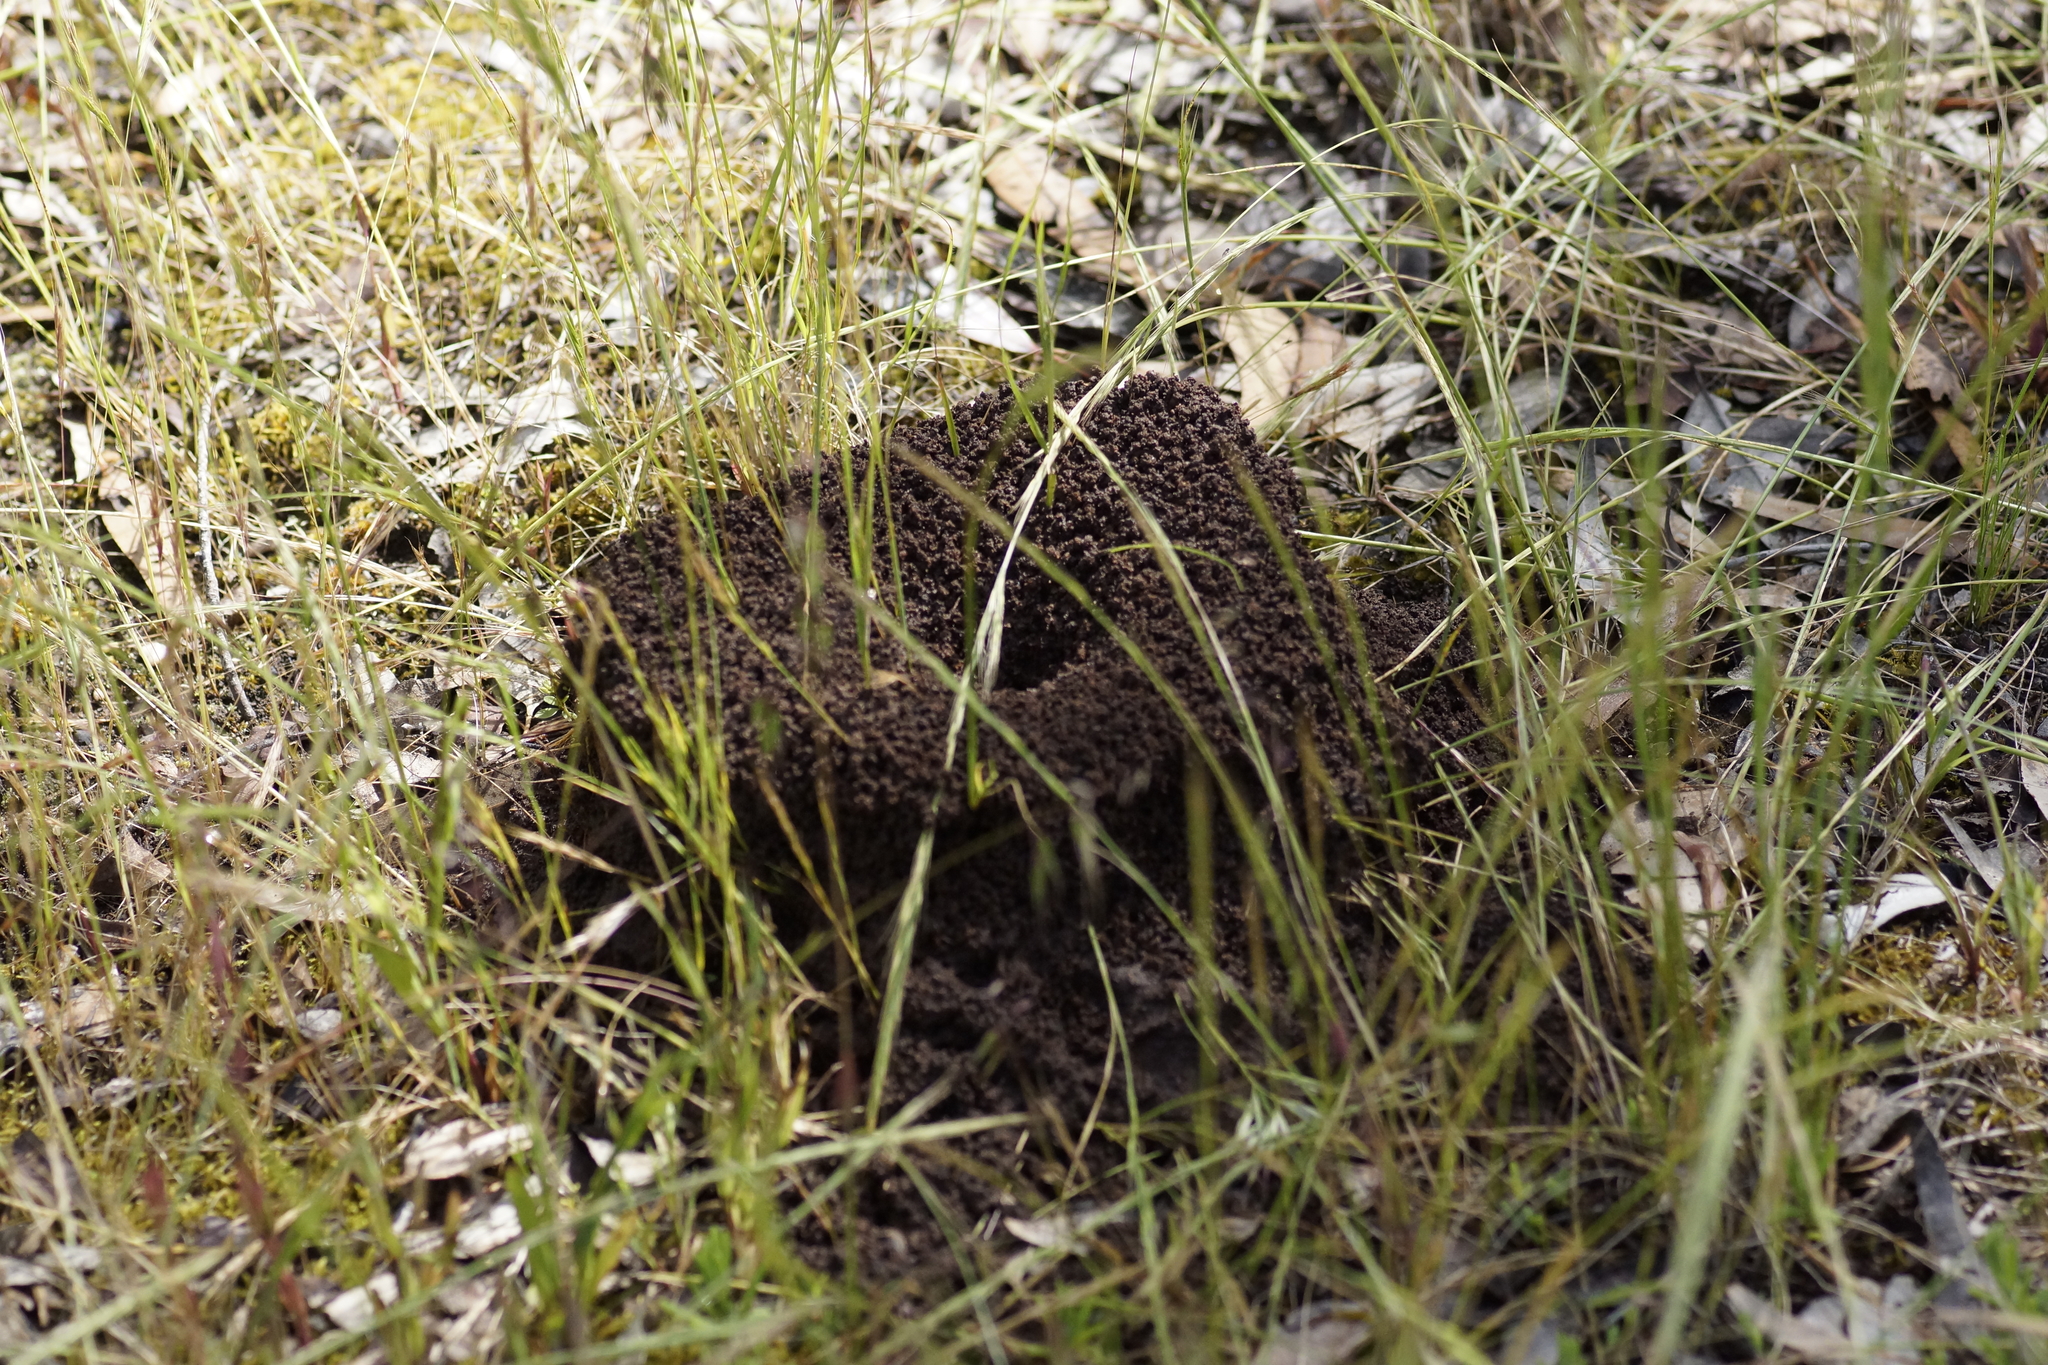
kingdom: Animalia
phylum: Arthropoda
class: Insecta
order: Hymenoptera
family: Formicidae
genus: Camponotus
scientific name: Camponotus consobrinus
